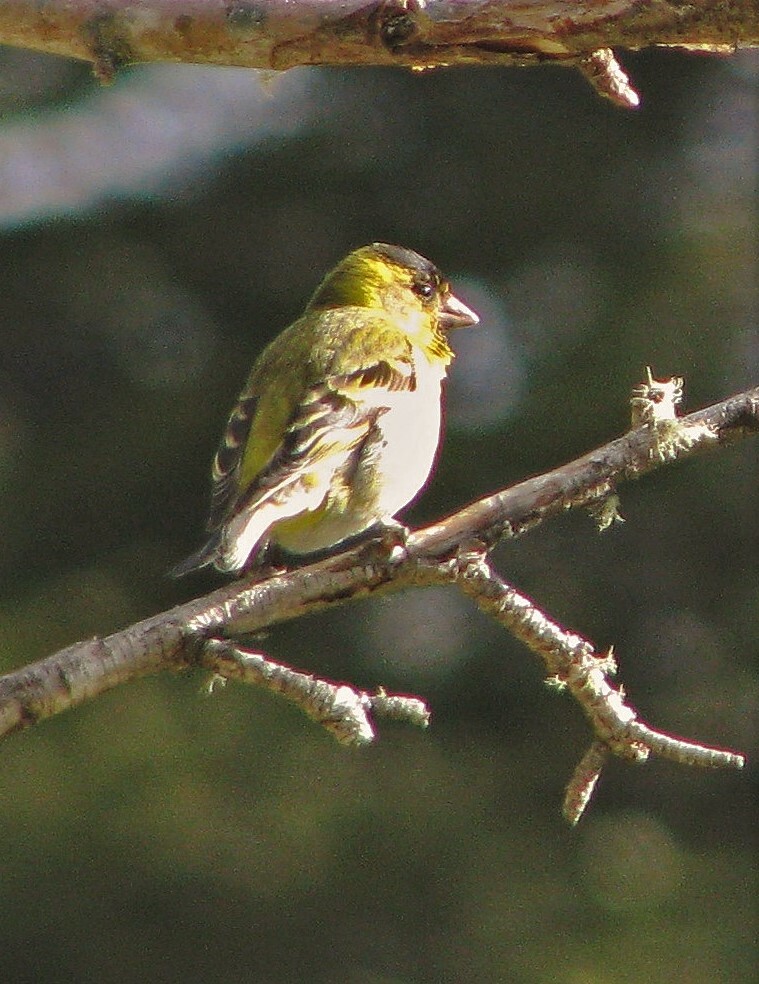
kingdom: Animalia
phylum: Chordata
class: Aves
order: Passeriformes
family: Fringillidae
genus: Spinus
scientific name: Spinus barbatus
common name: Black-chinned siskin
